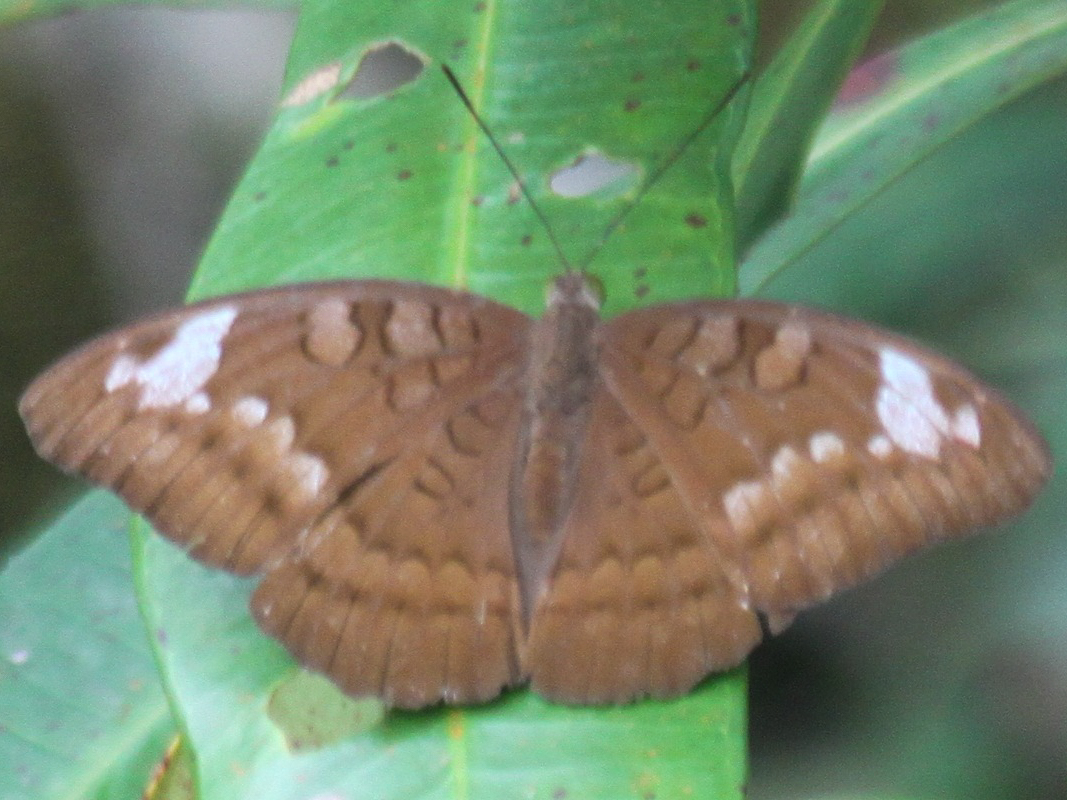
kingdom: Animalia
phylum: Arthropoda
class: Insecta
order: Lepidoptera
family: Nymphalidae
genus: Tanaecia
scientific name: Tanaecia julii
